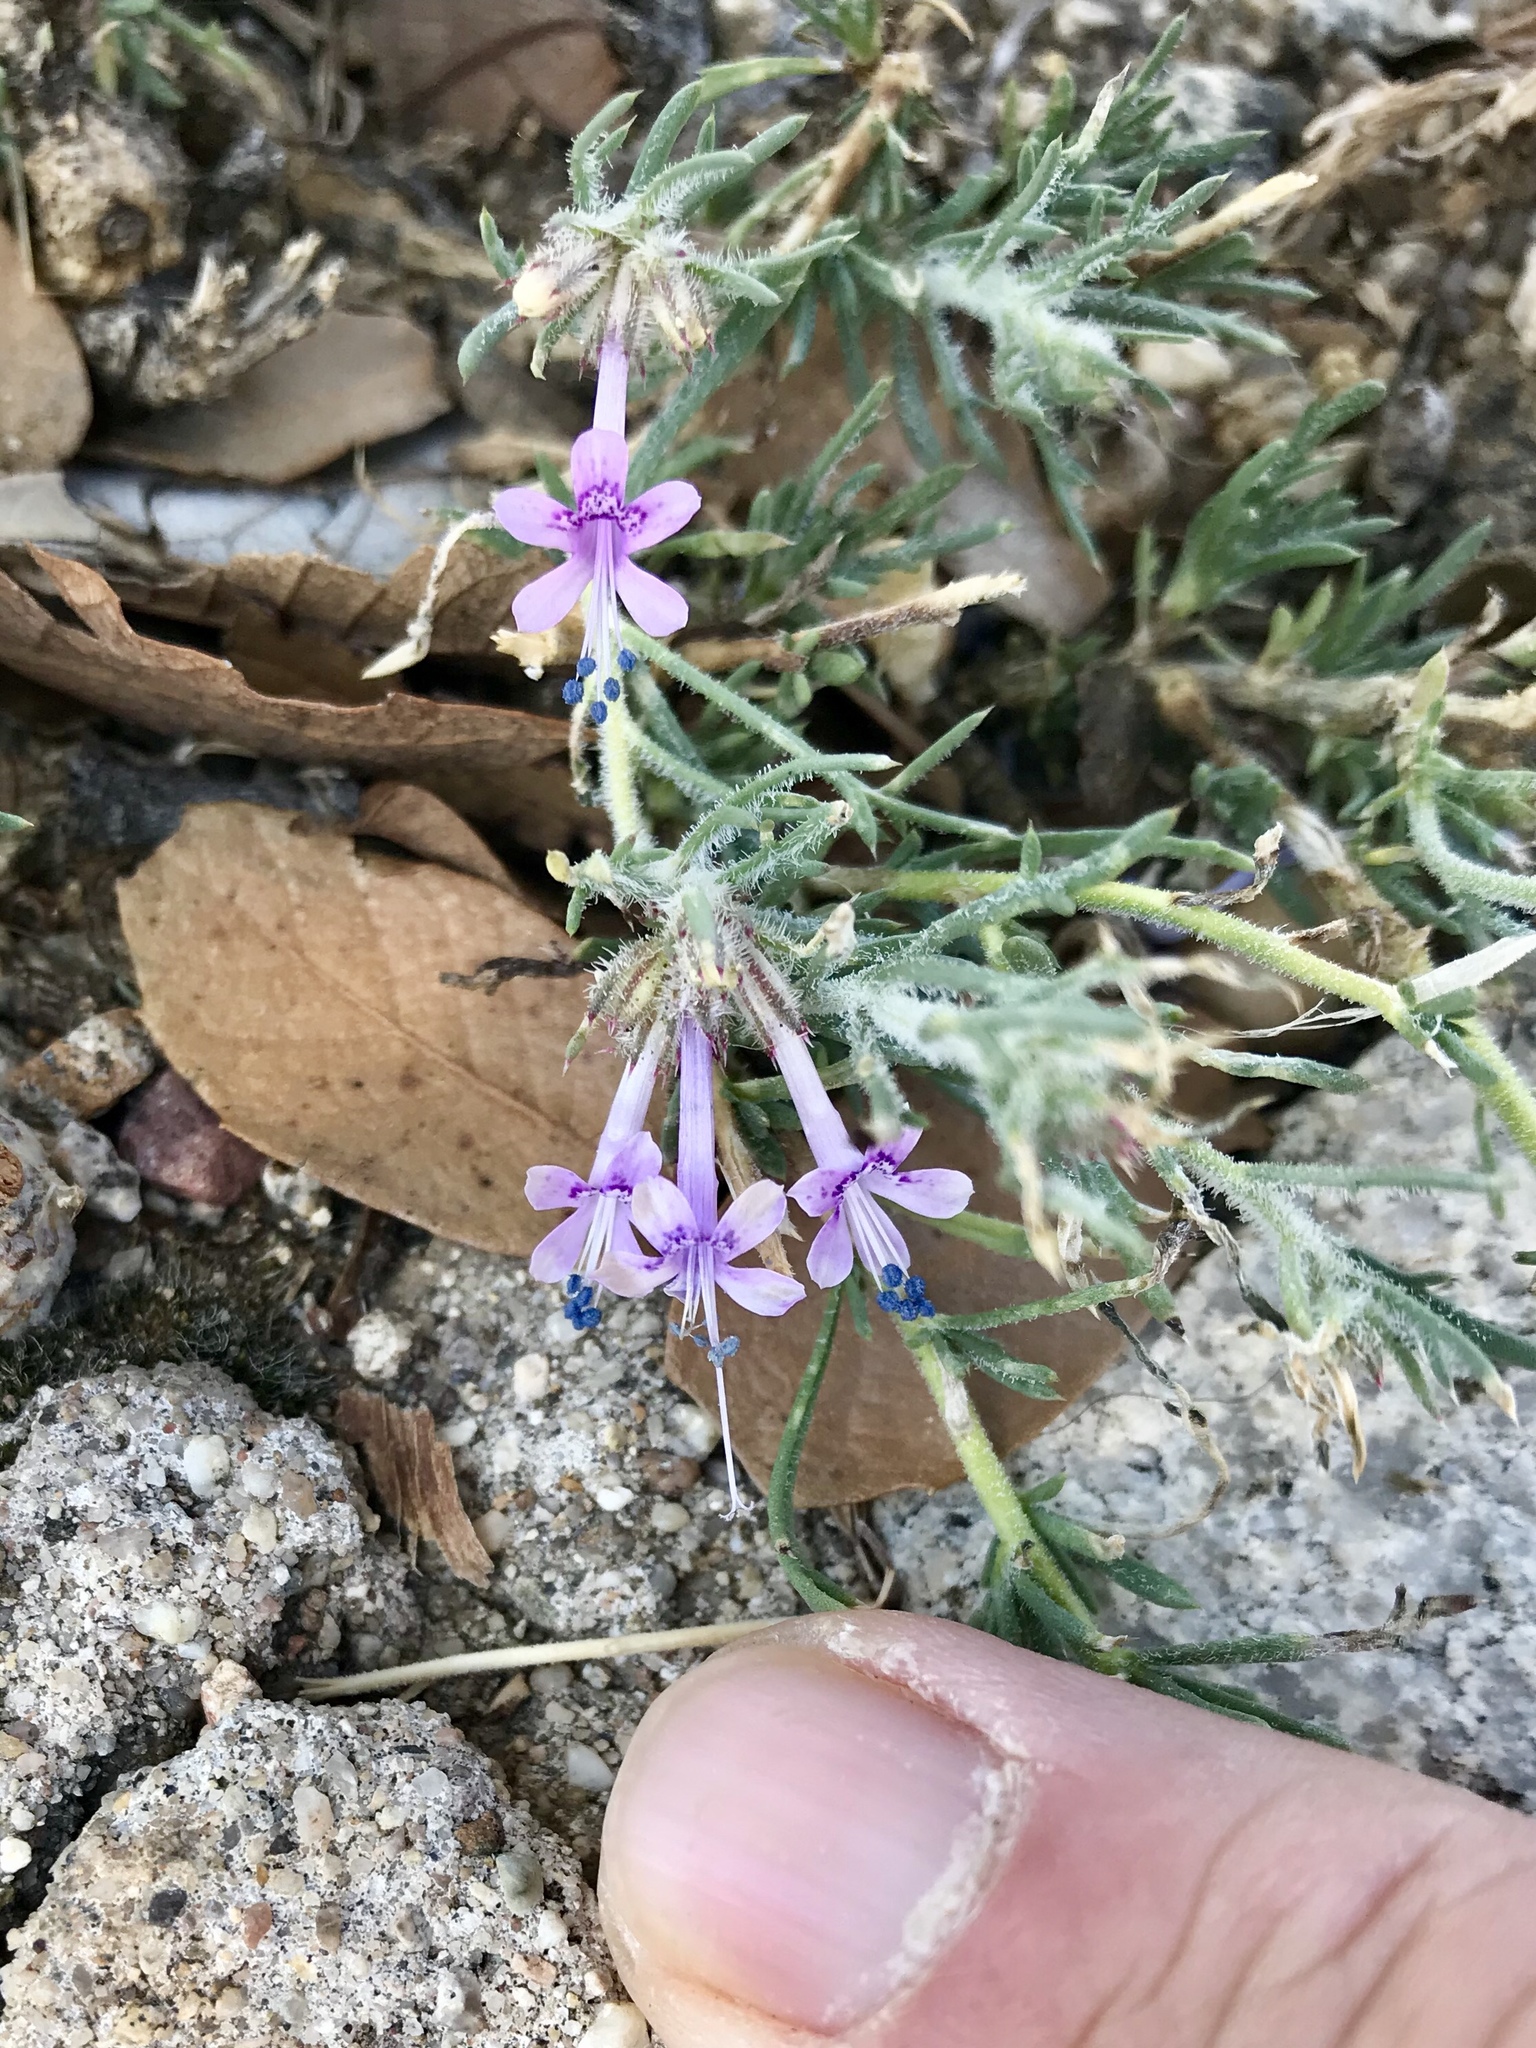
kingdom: Plantae
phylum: Tracheophyta
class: Magnoliopsida
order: Ericales
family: Polemoniaceae
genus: Ipomopsis
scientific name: Ipomopsis multiflora
